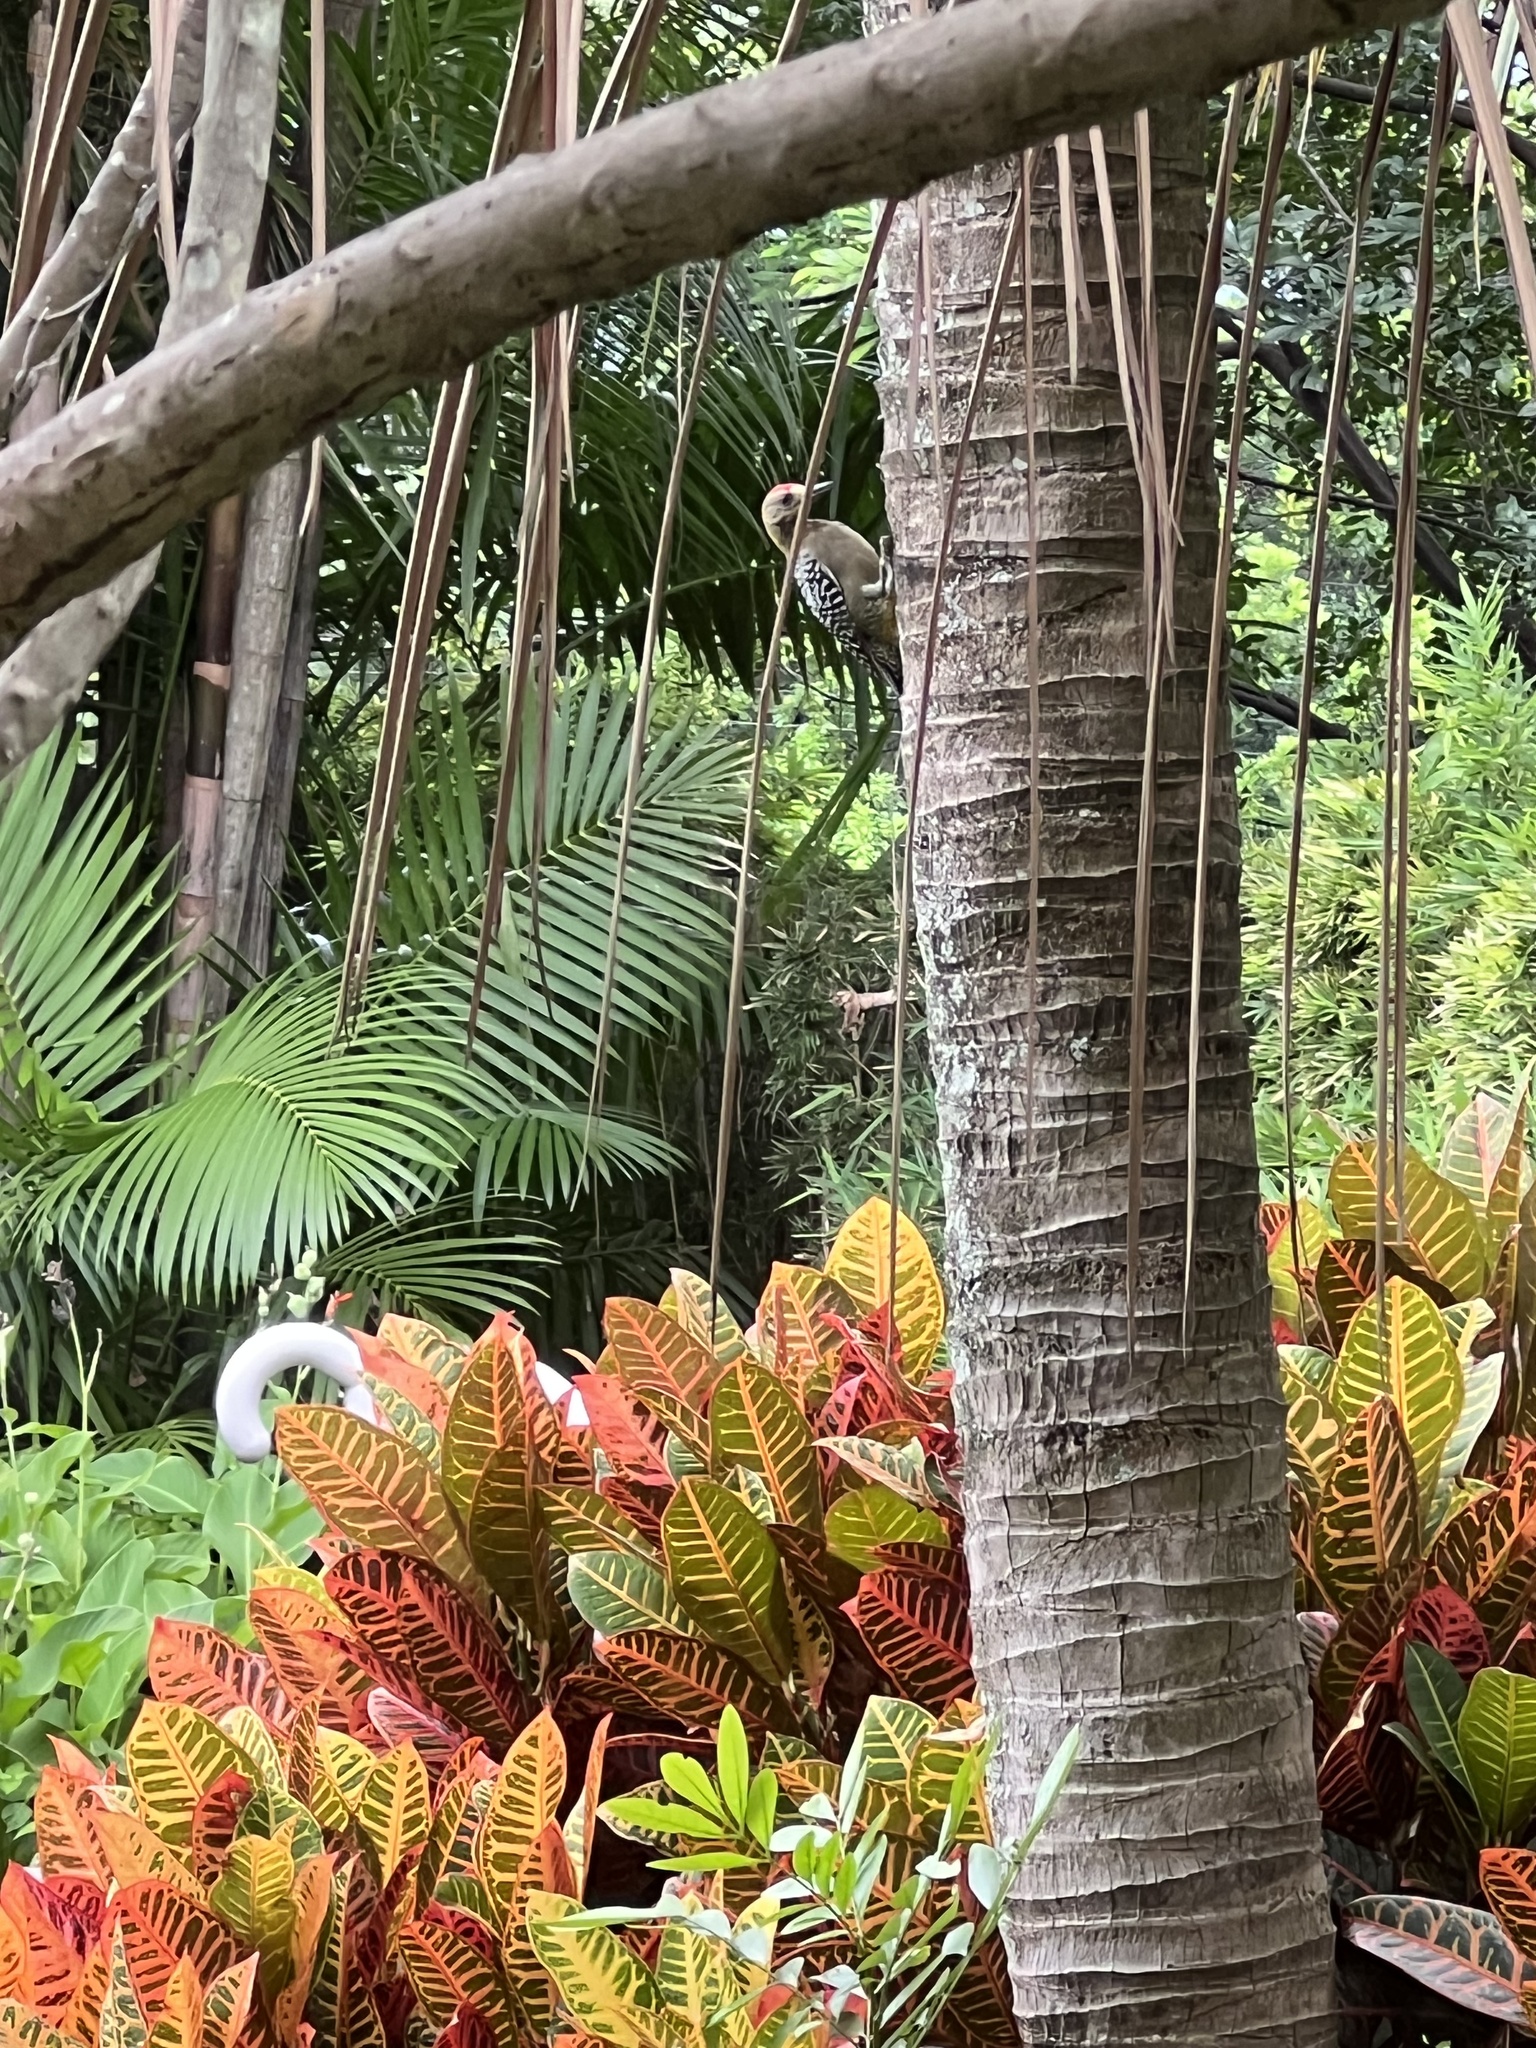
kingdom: Animalia
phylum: Chordata
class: Aves
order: Piciformes
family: Picidae
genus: Melanerpes
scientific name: Melanerpes hoffmannii
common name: Hoffmann's woodpecker
